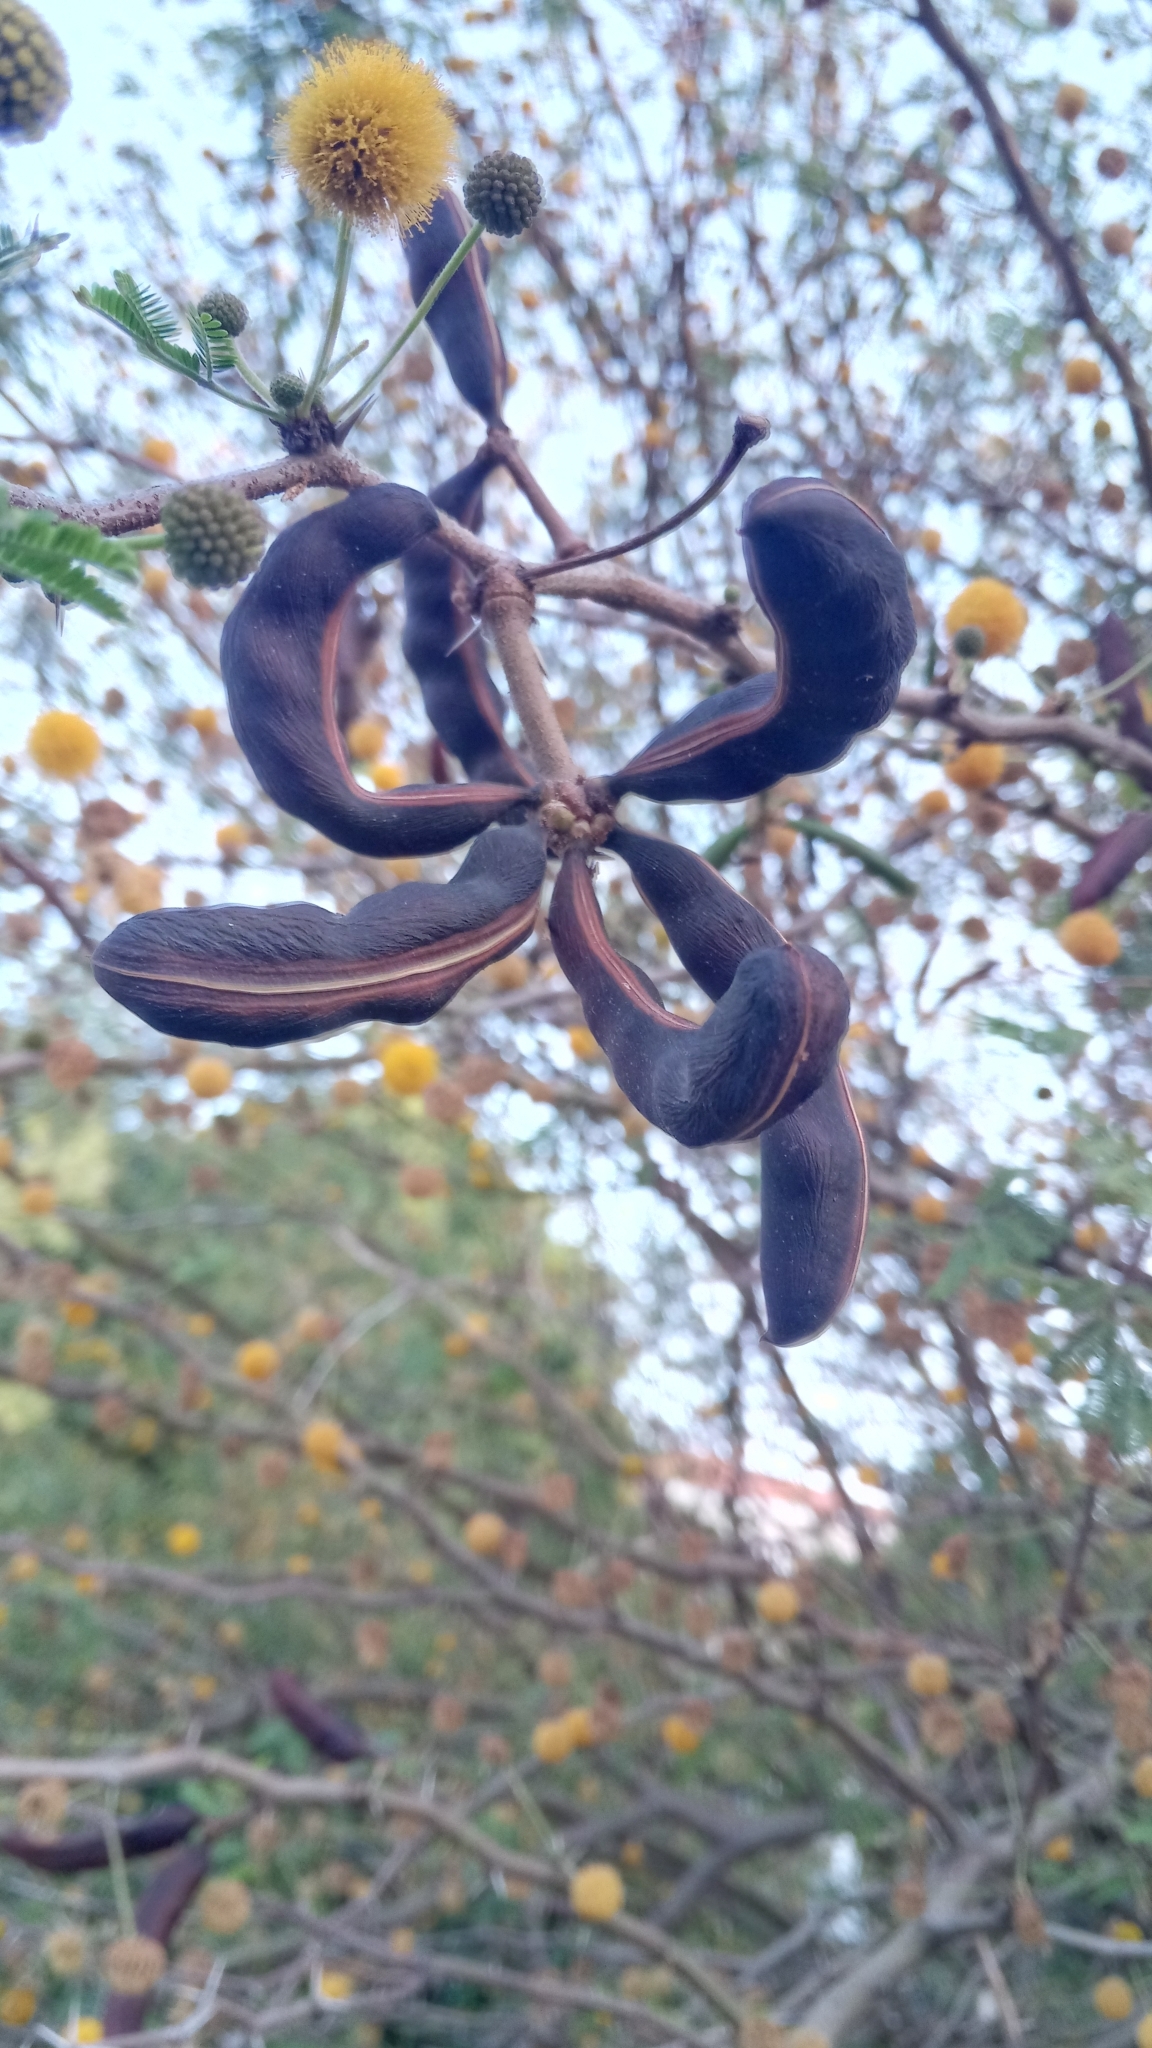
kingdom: Plantae
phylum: Tracheophyta
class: Magnoliopsida
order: Fabales
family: Fabaceae
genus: Vachellia
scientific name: Vachellia farnesiana
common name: Sweet acacia
